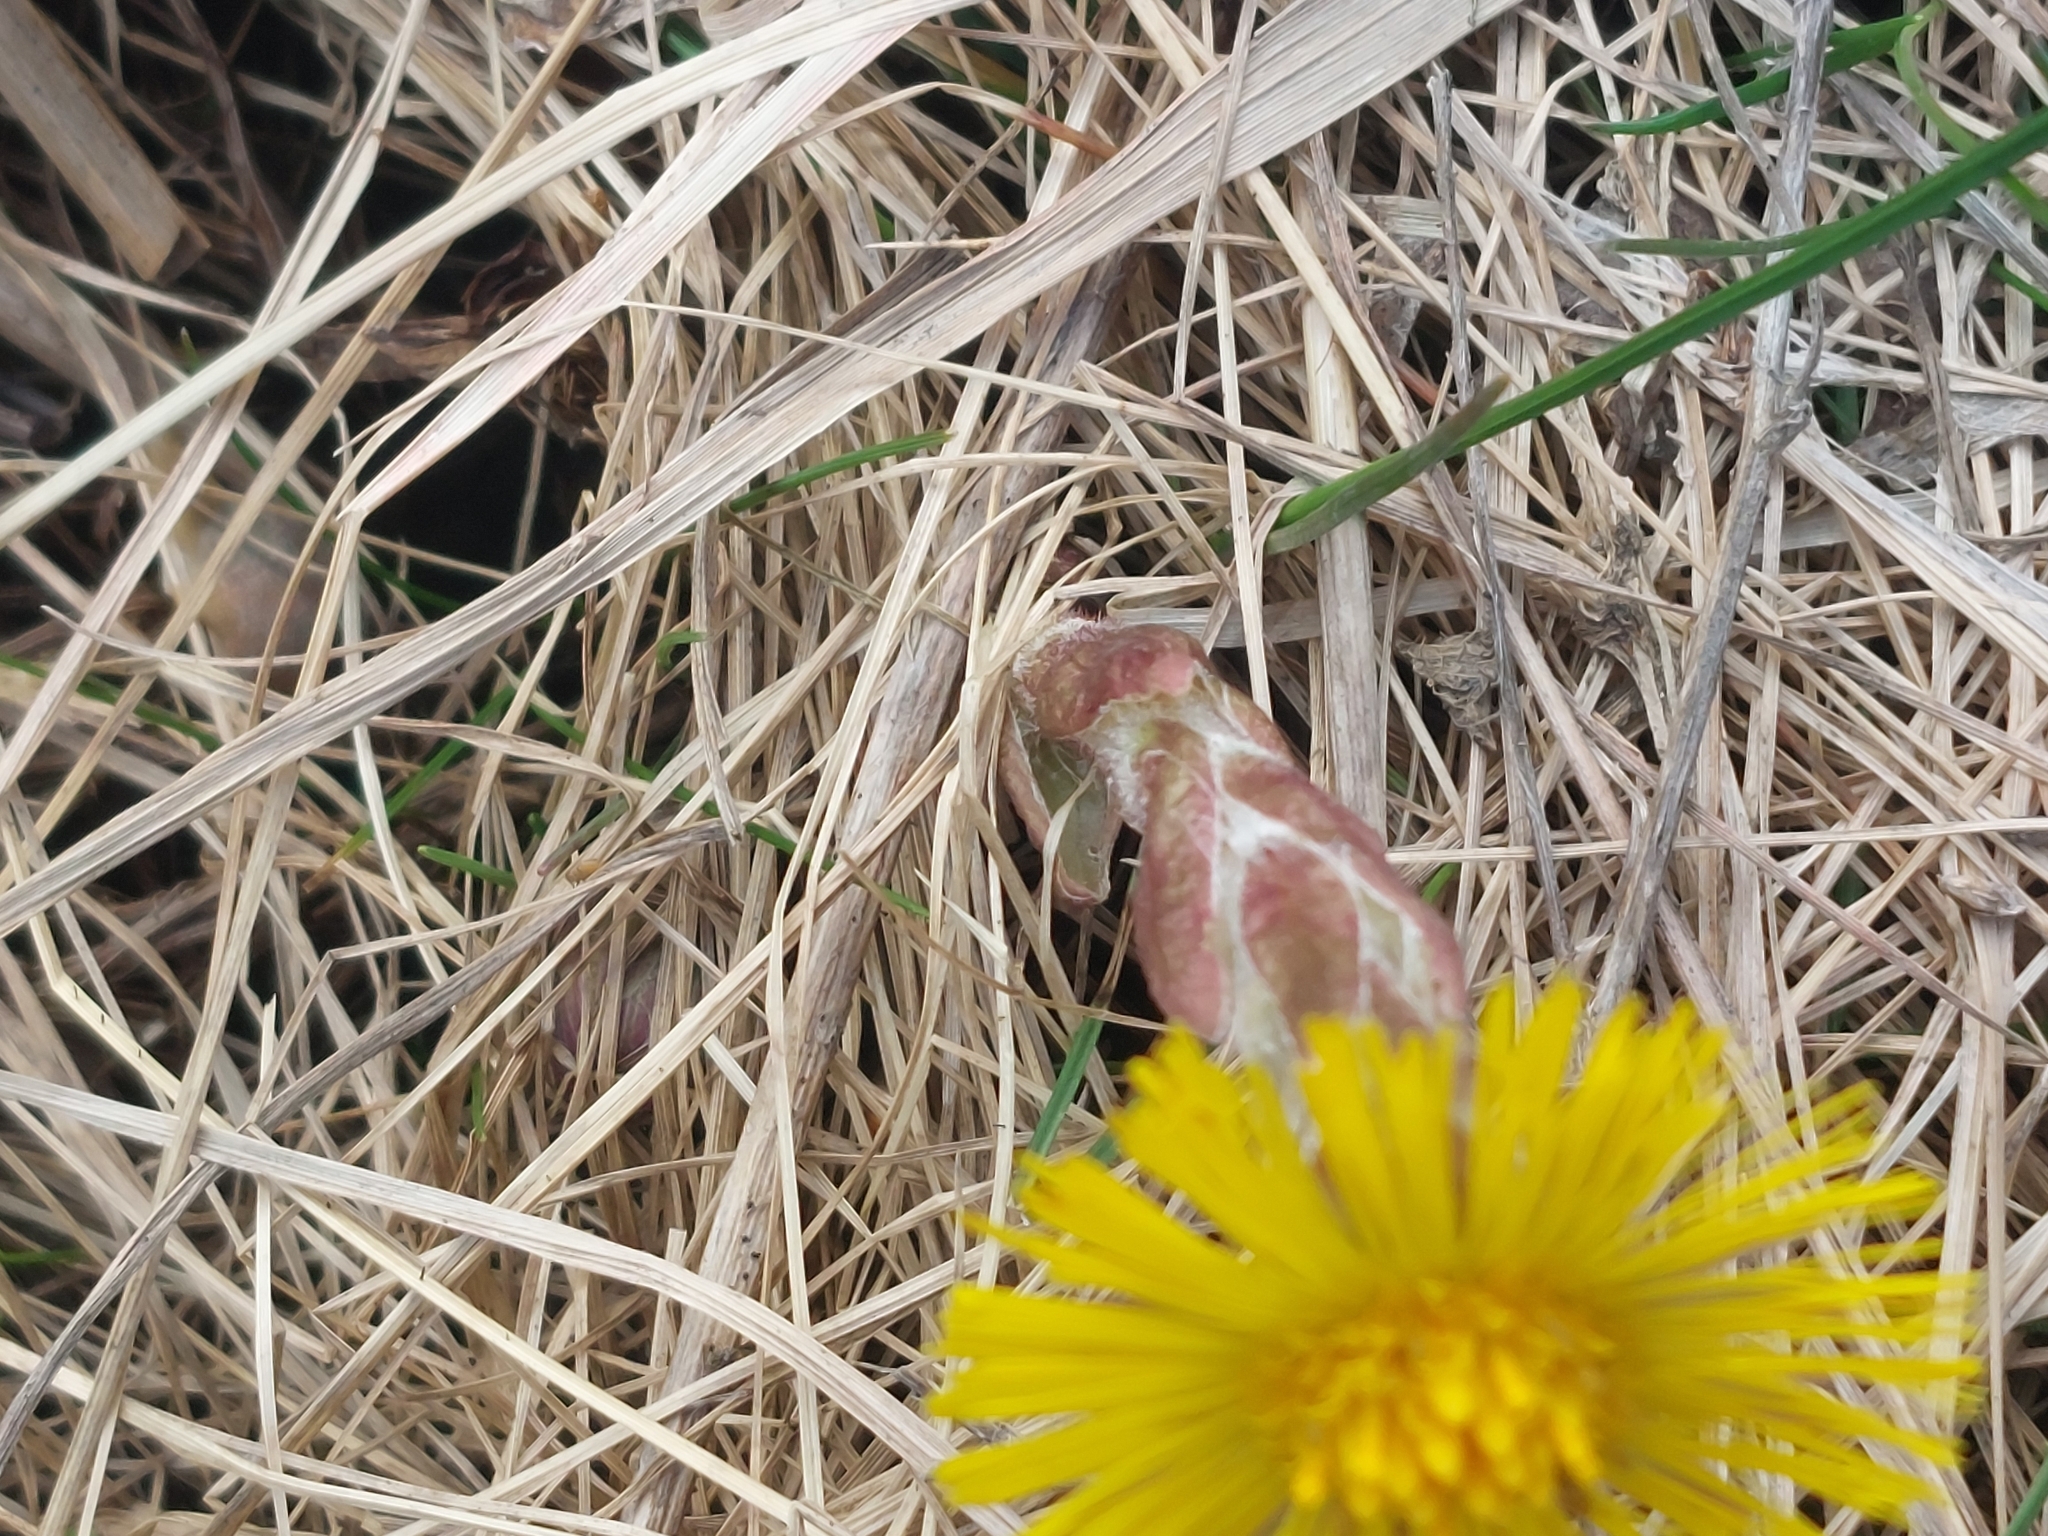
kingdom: Plantae
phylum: Tracheophyta
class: Magnoliopsida
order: Asterales
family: Asteraceae
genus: Tussilago
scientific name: Tussilago farfara
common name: Coltsfoot
